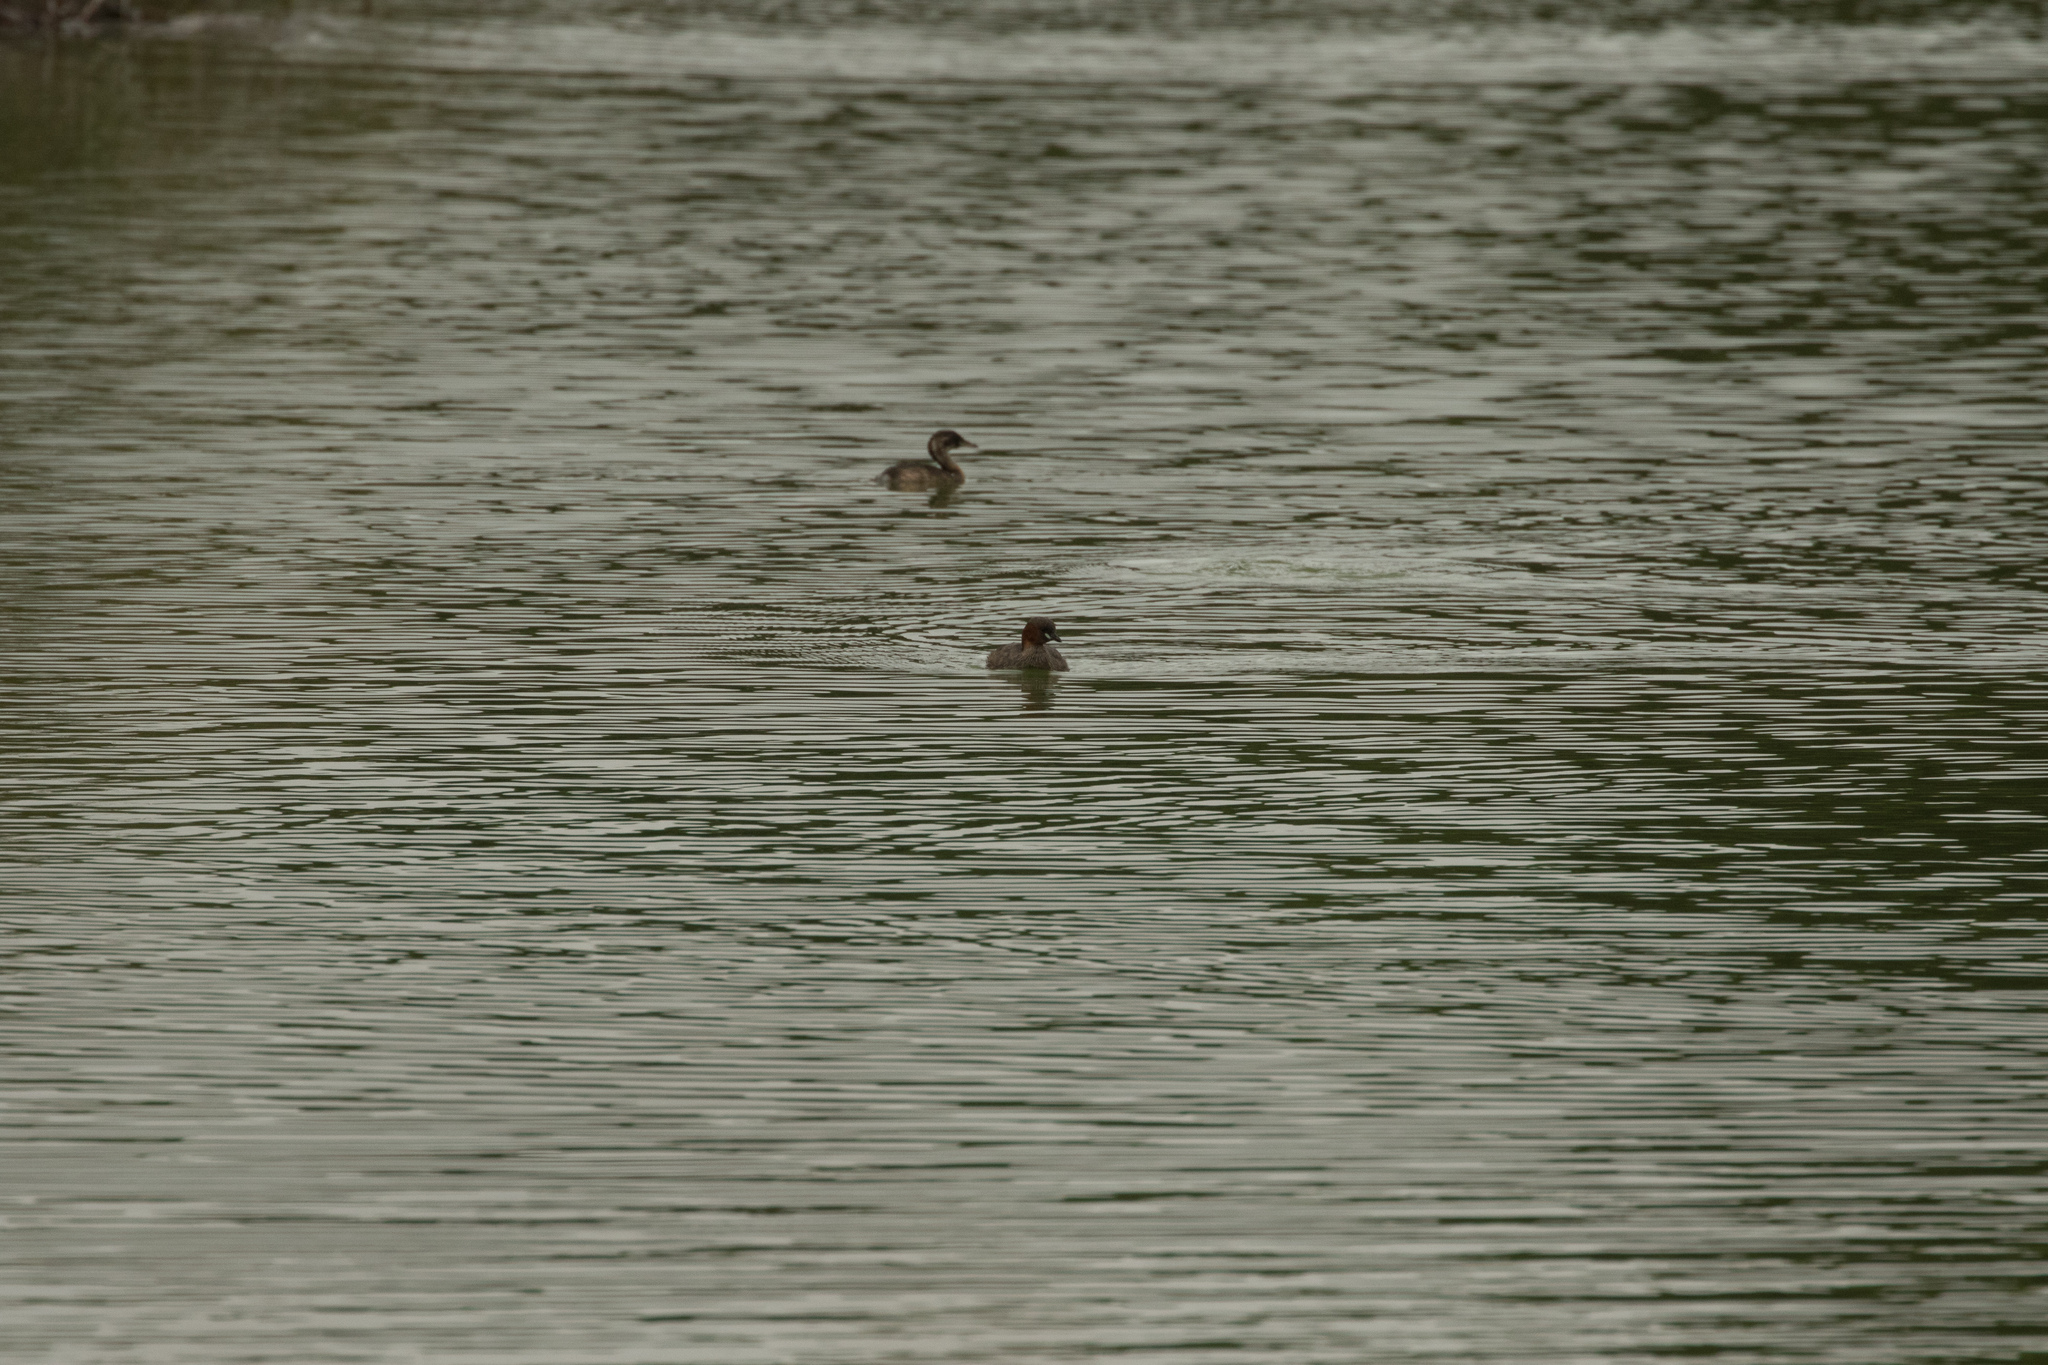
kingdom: Animalia
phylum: Chordata
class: Aves
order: Podicipediformes
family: Podicipedidae
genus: Tachybaptus
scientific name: Tachybaptus ruficollis
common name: Little grebe
